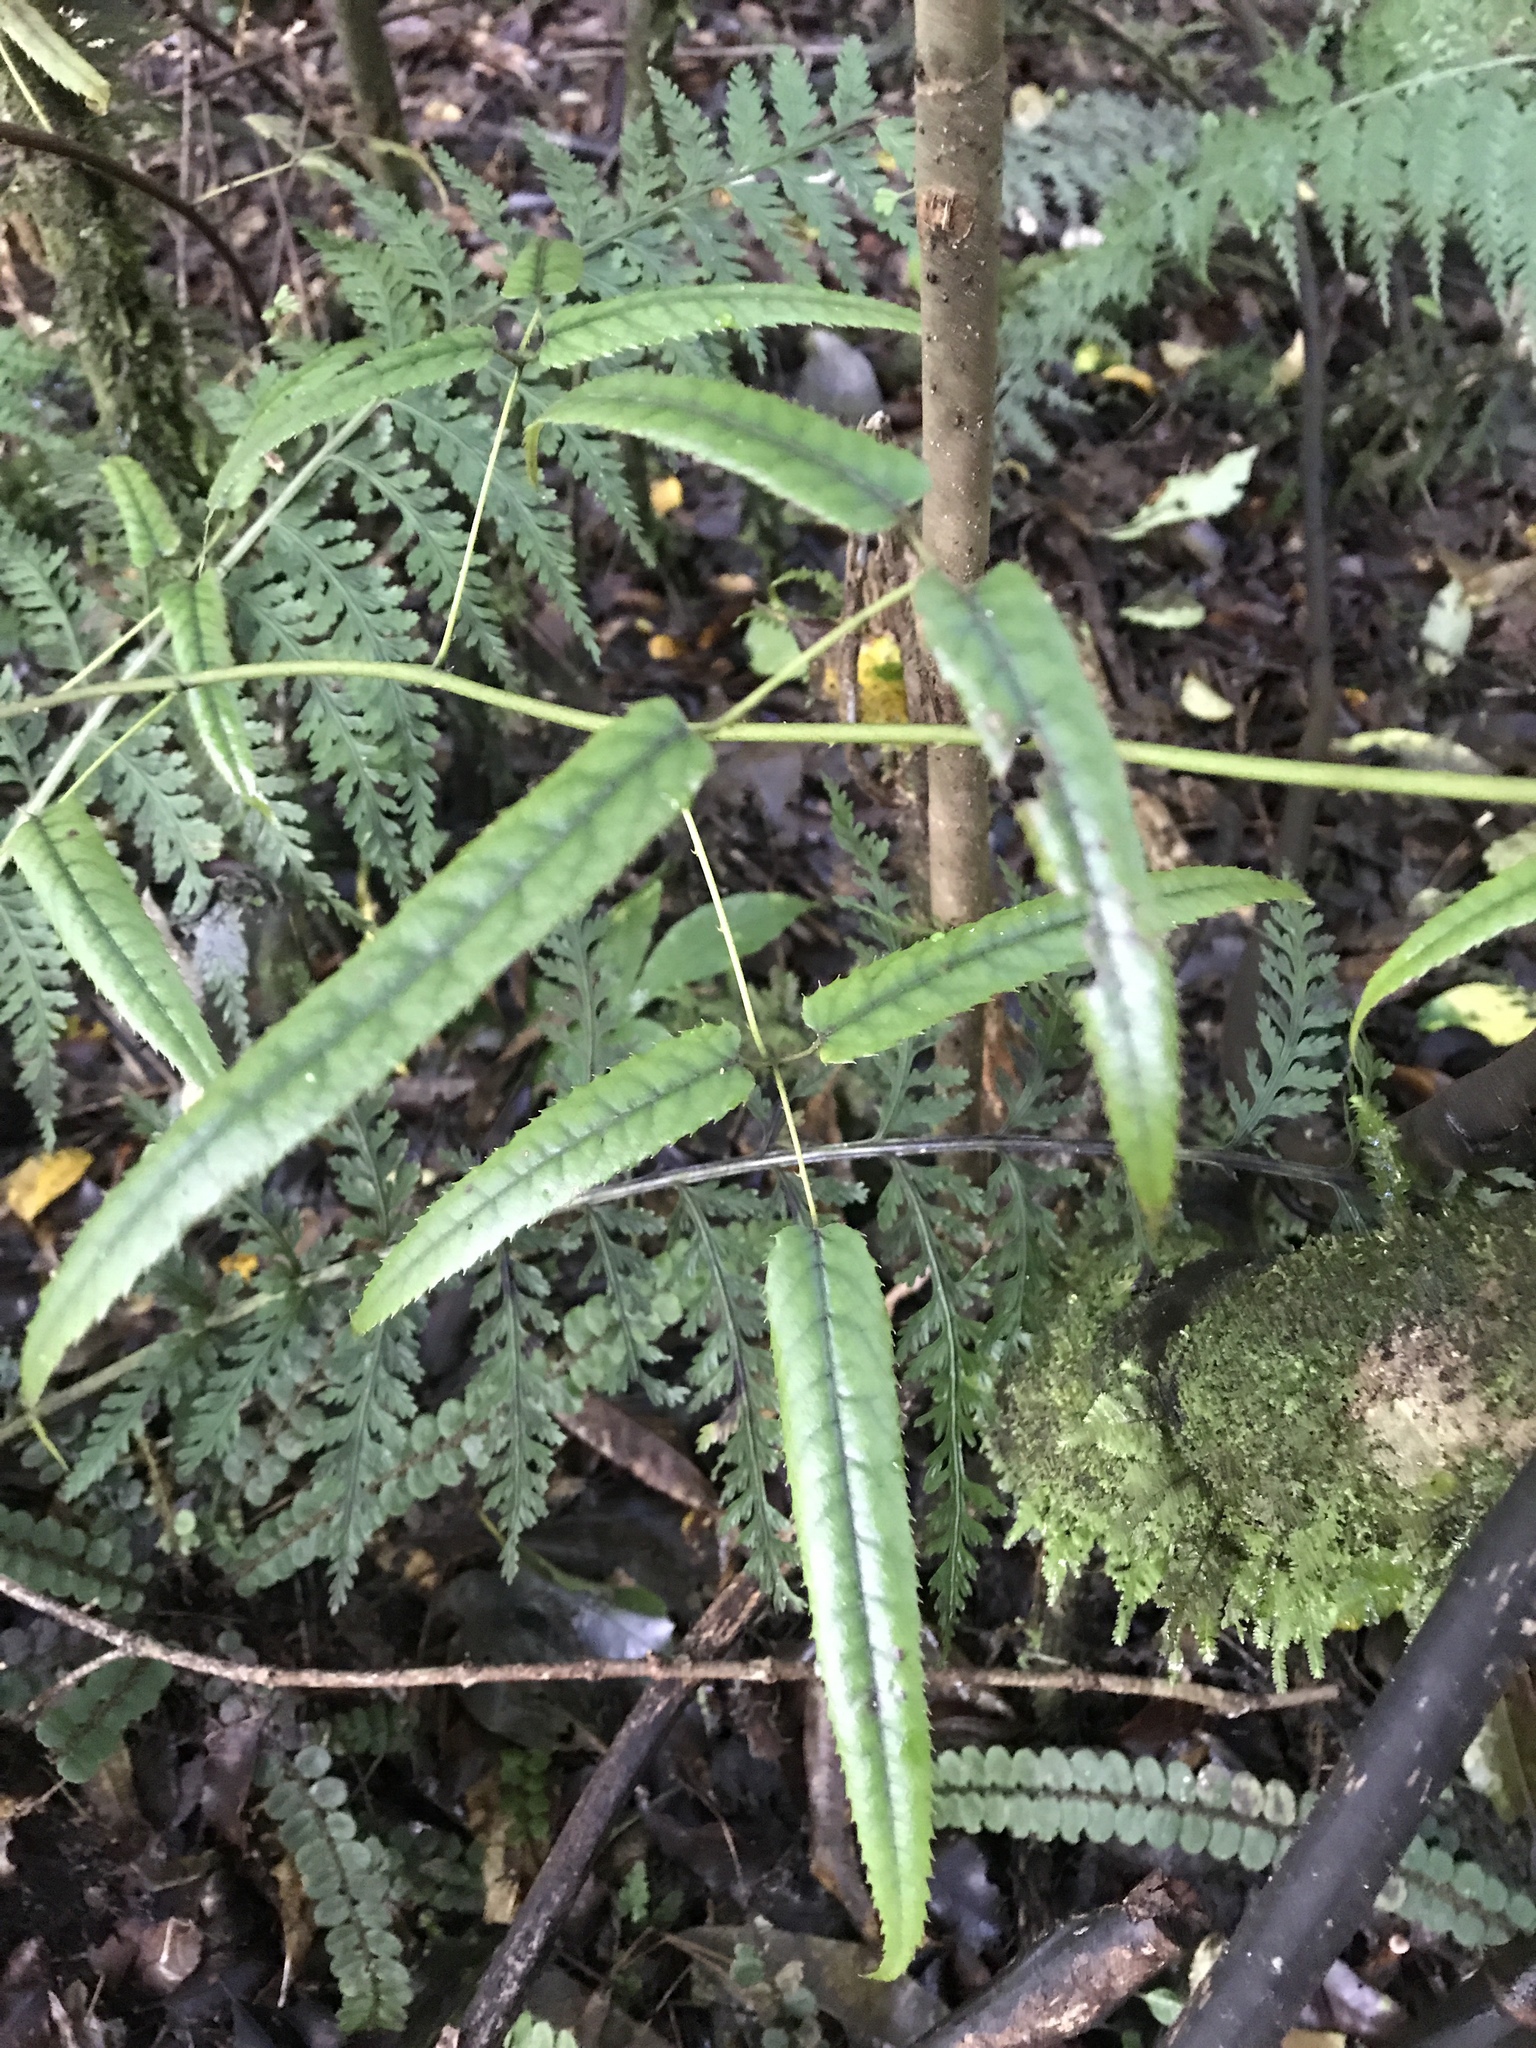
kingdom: Plantae
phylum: Tracheophyta
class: Magnoliopsida
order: Rosales
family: Rosaceae
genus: Rubus
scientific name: Rubus cissoides
